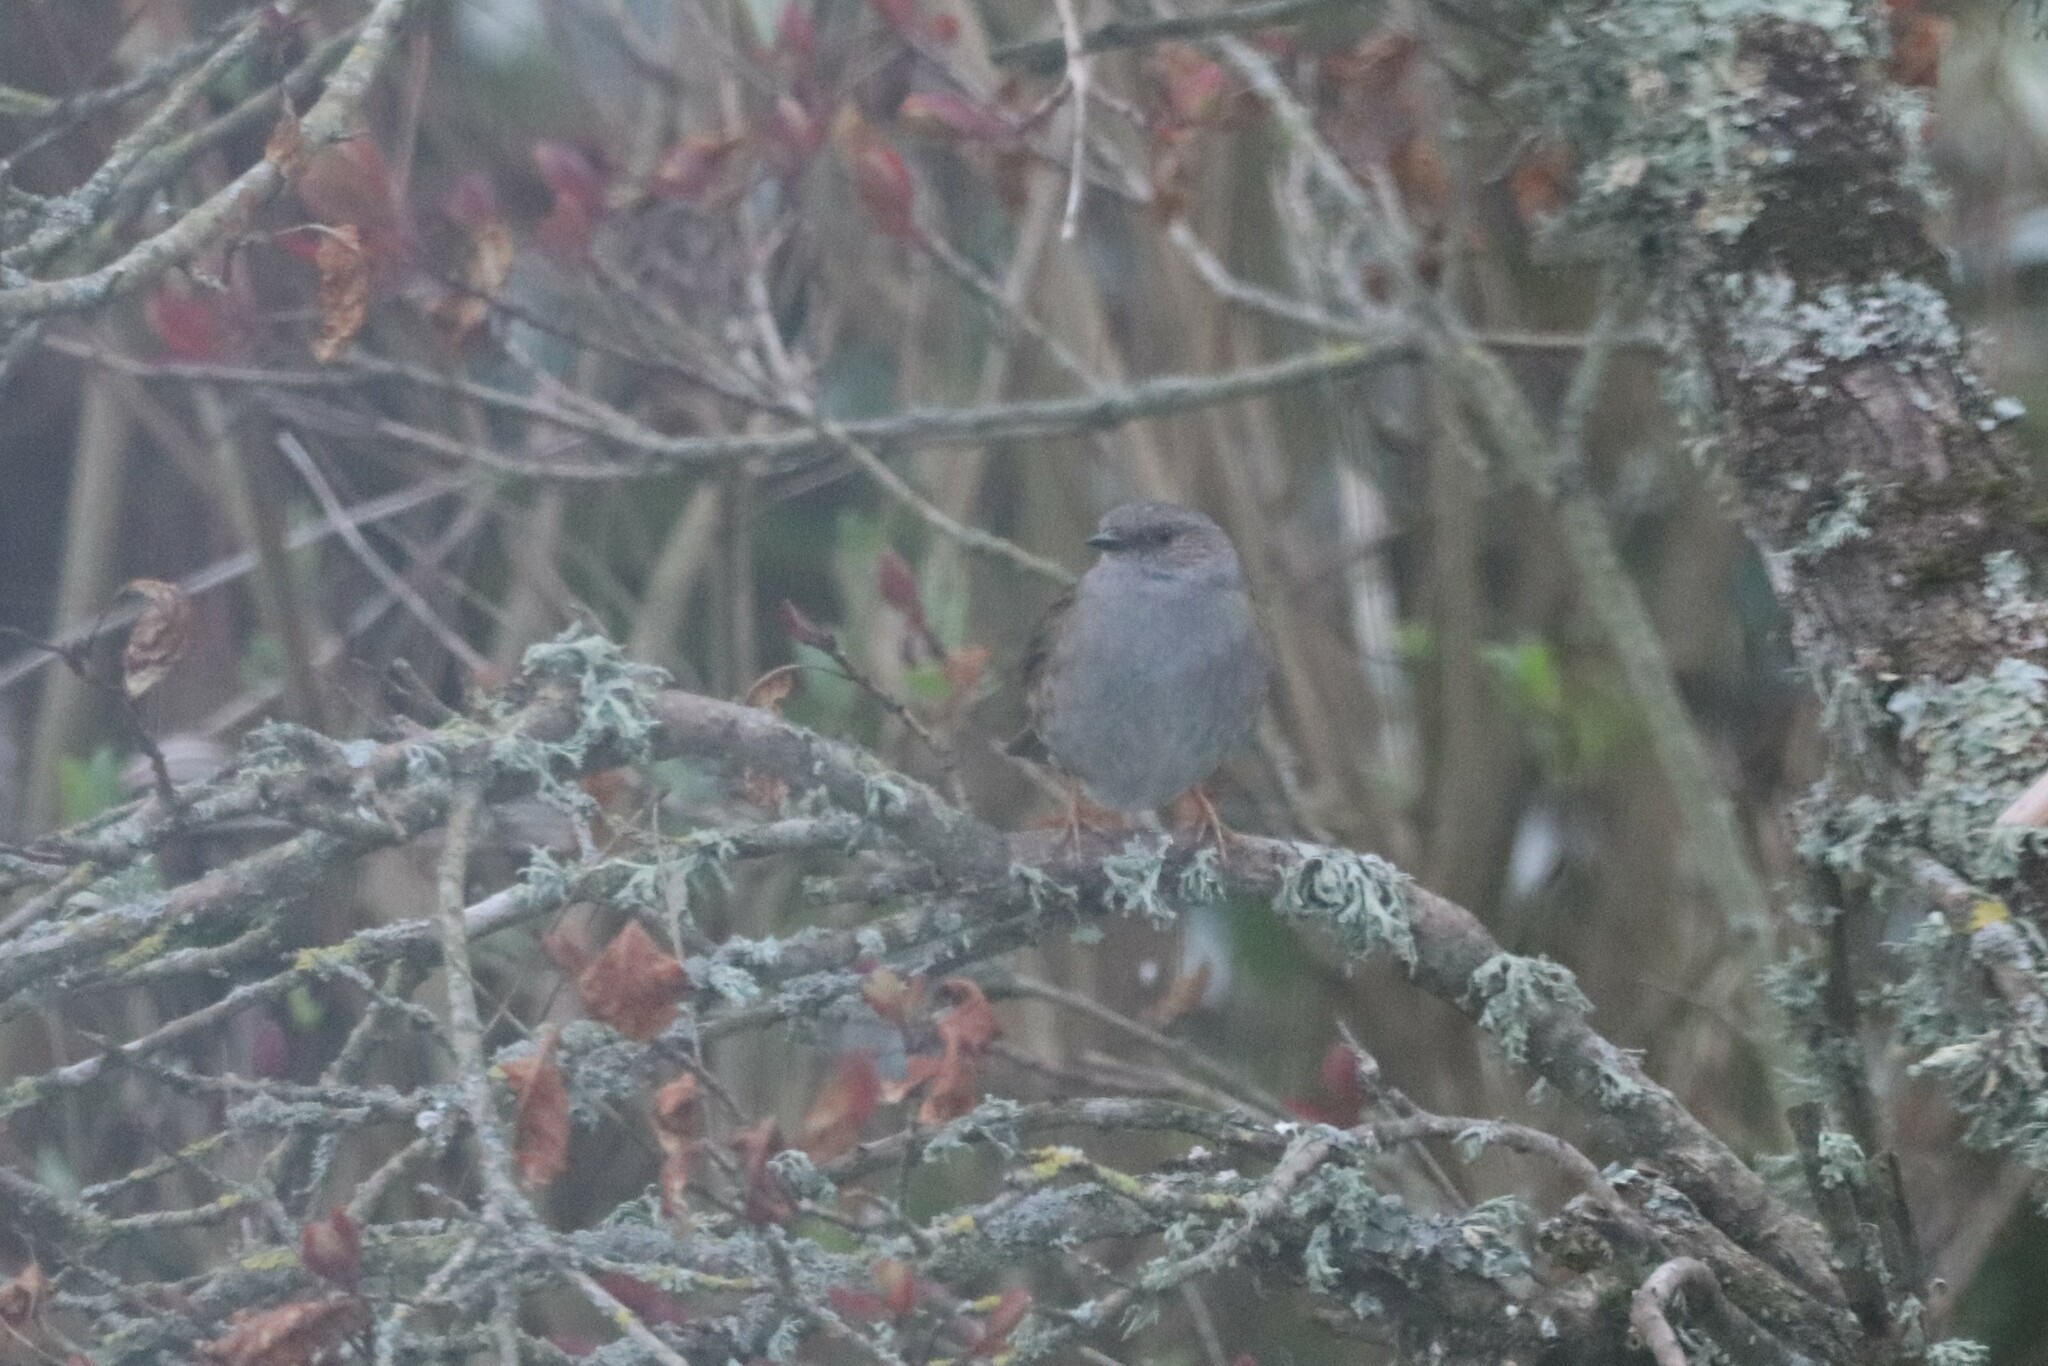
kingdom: Animalia
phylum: Chordata
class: Aves
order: Passeriformes
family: Prunellidae
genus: Prunella
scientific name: Prunella modularis
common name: Dunnock
